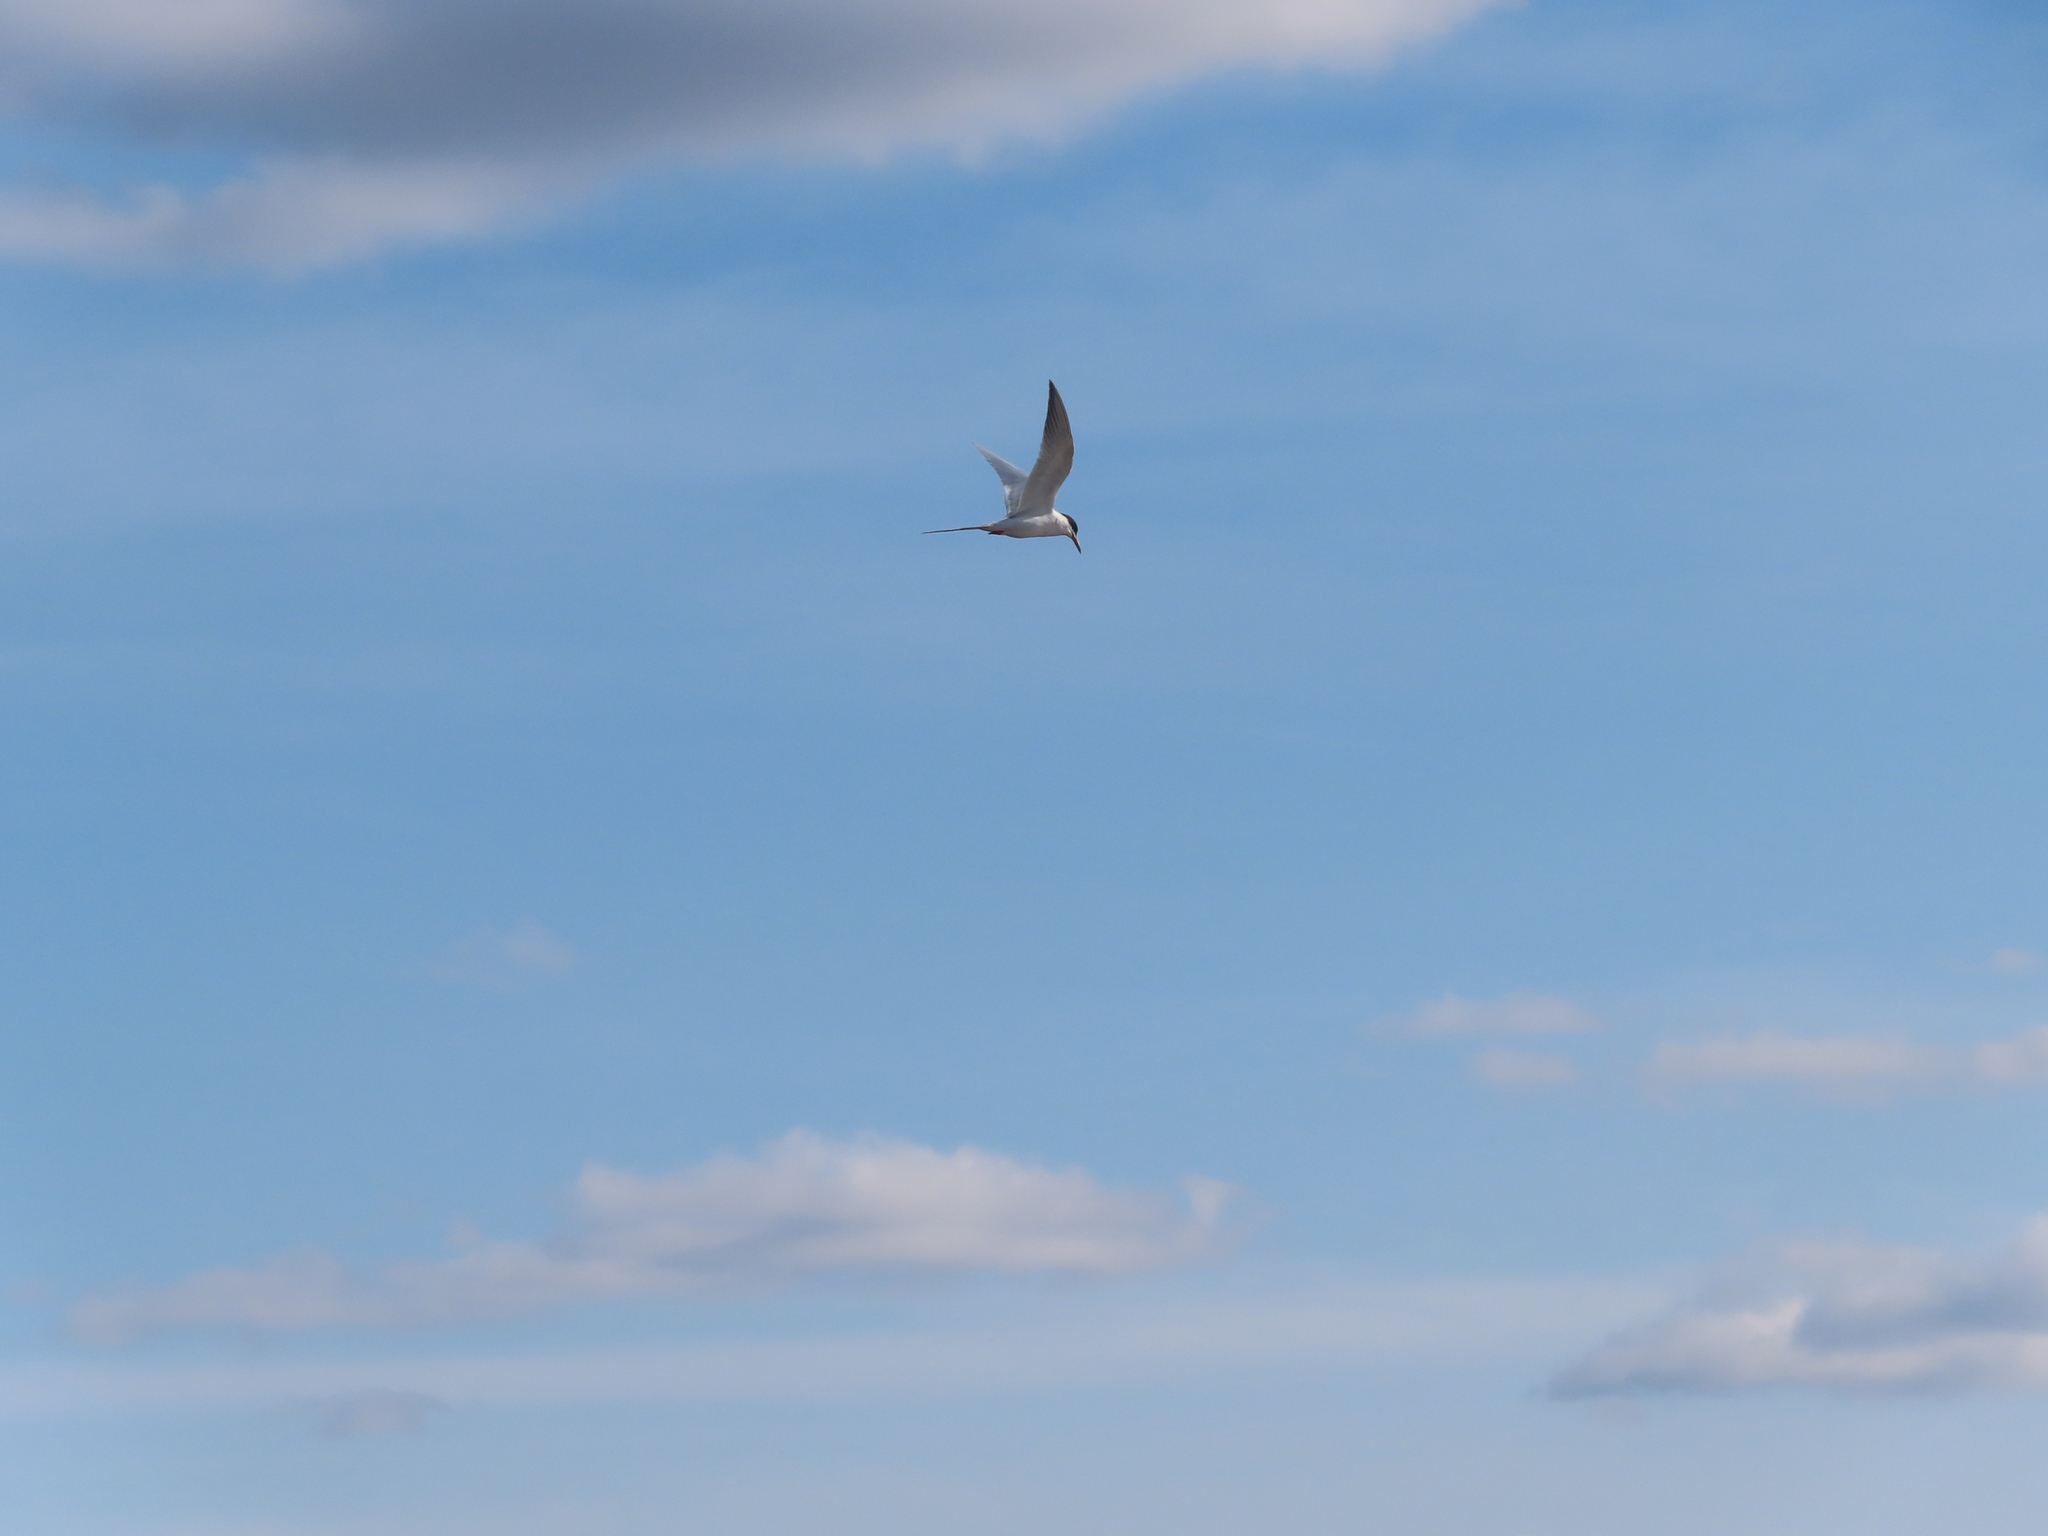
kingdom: Animalia
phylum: Chordata
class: Aves
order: Charadriiformes
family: Laridae
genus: Sterna
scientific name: Sterna forsteri
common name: Forster's tern
